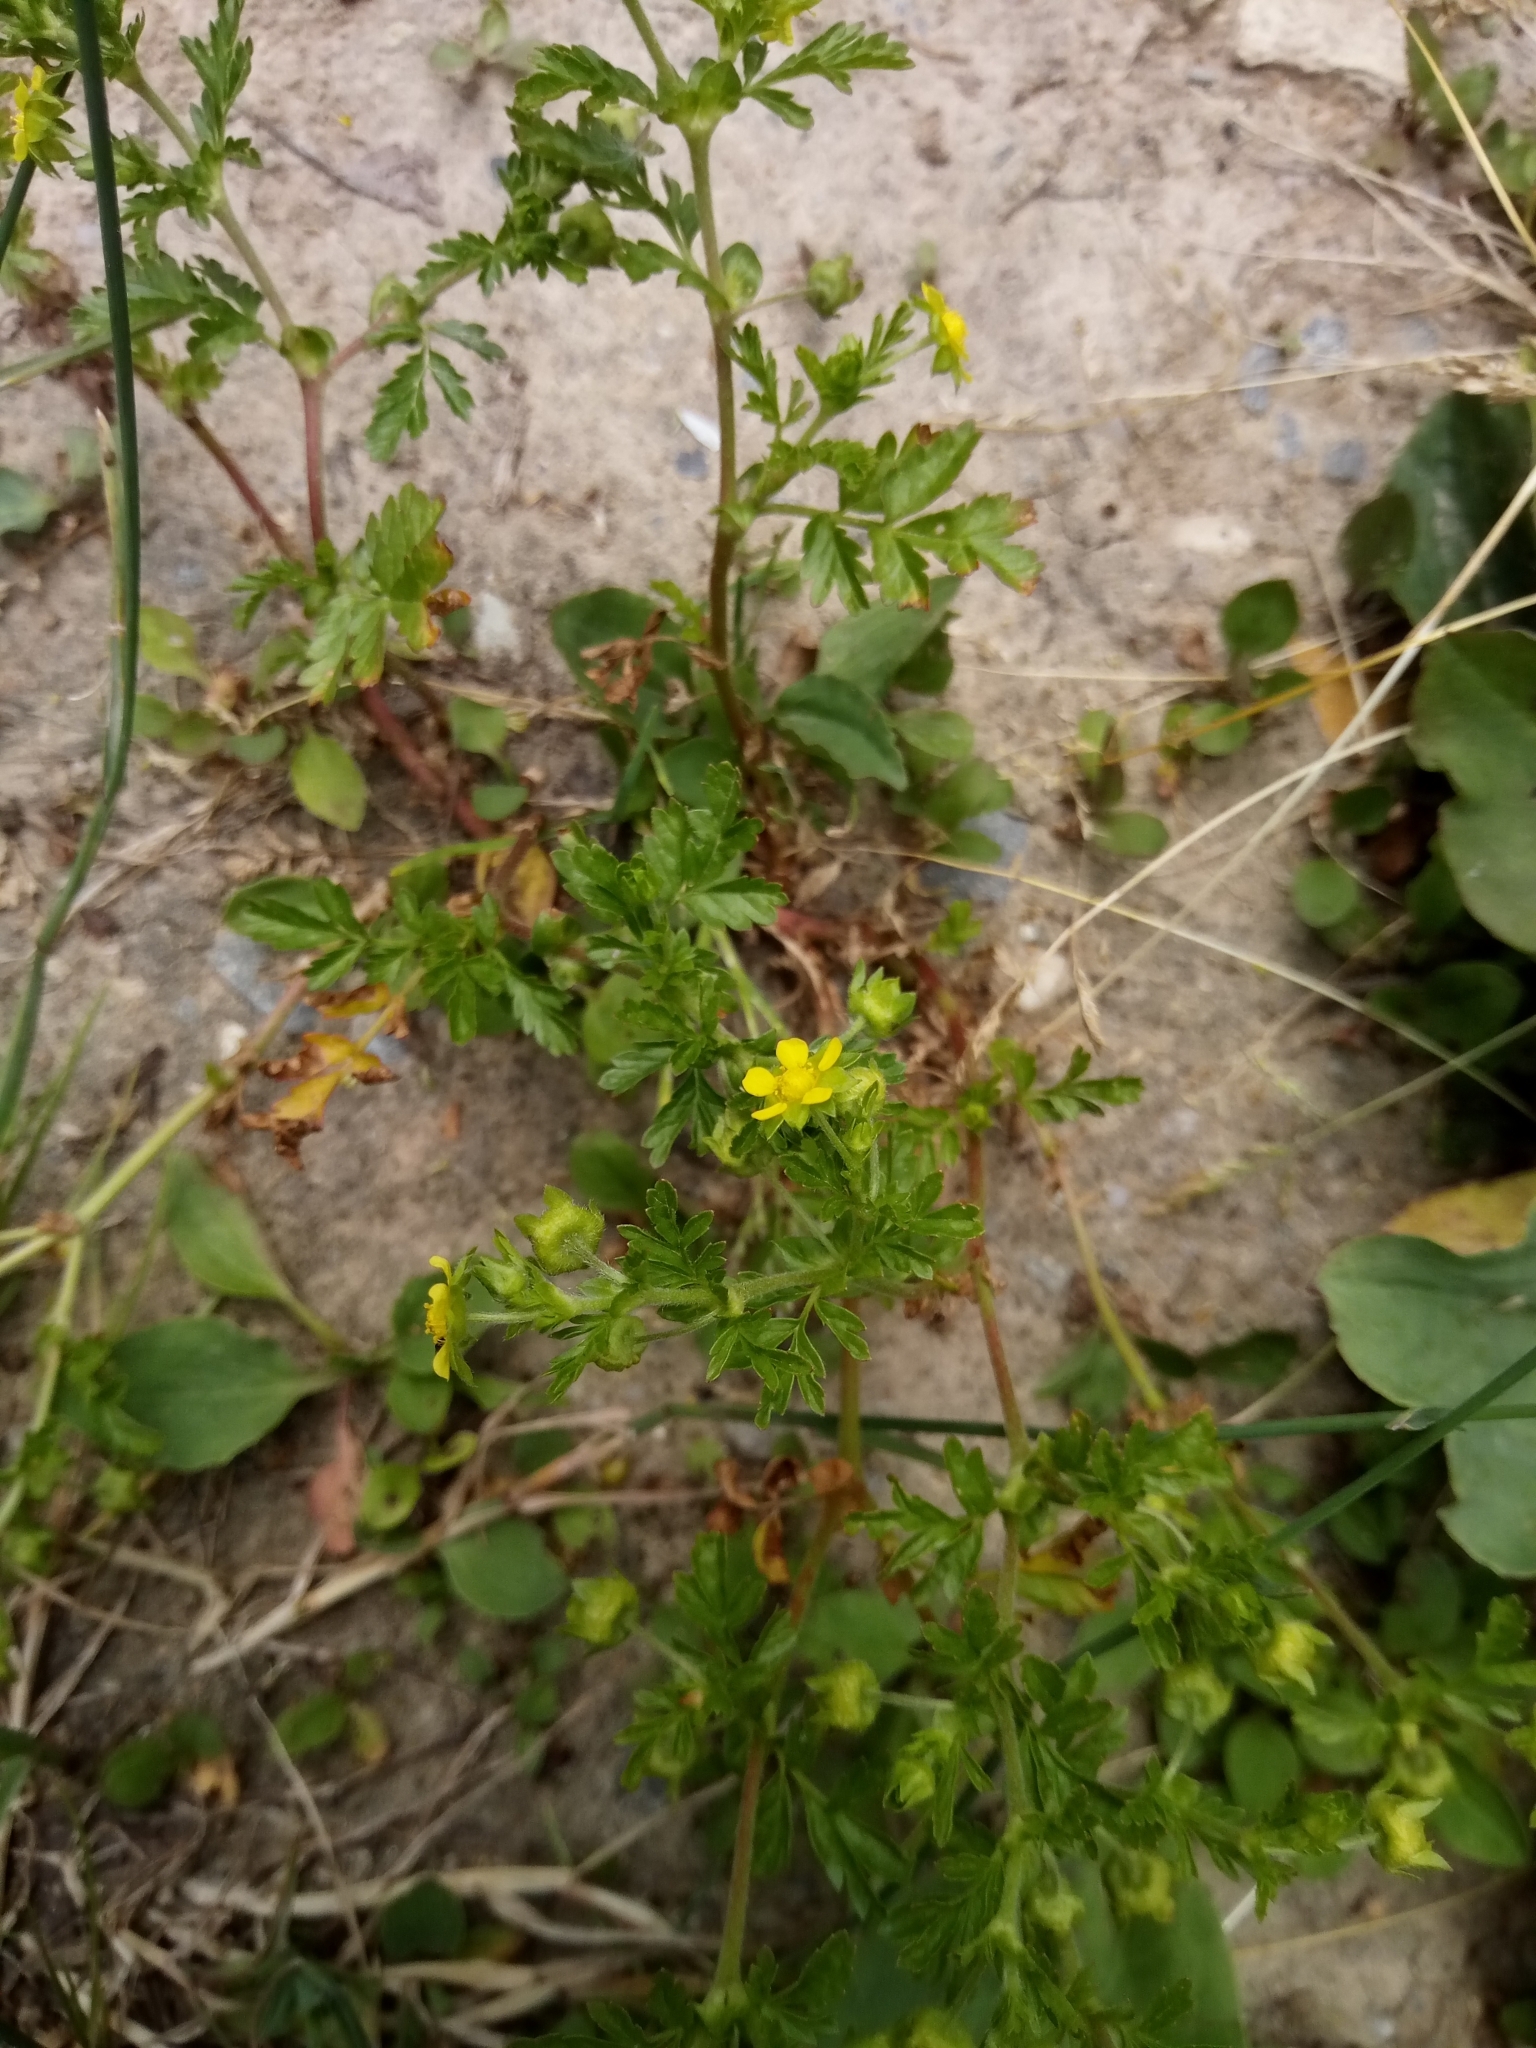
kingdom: Plantae
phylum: Tracheophyta
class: Magnoliopsida
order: Rosales
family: Rosaceae
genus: Potentilla
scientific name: Potentilla supina
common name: Prostrate cinquefoil
